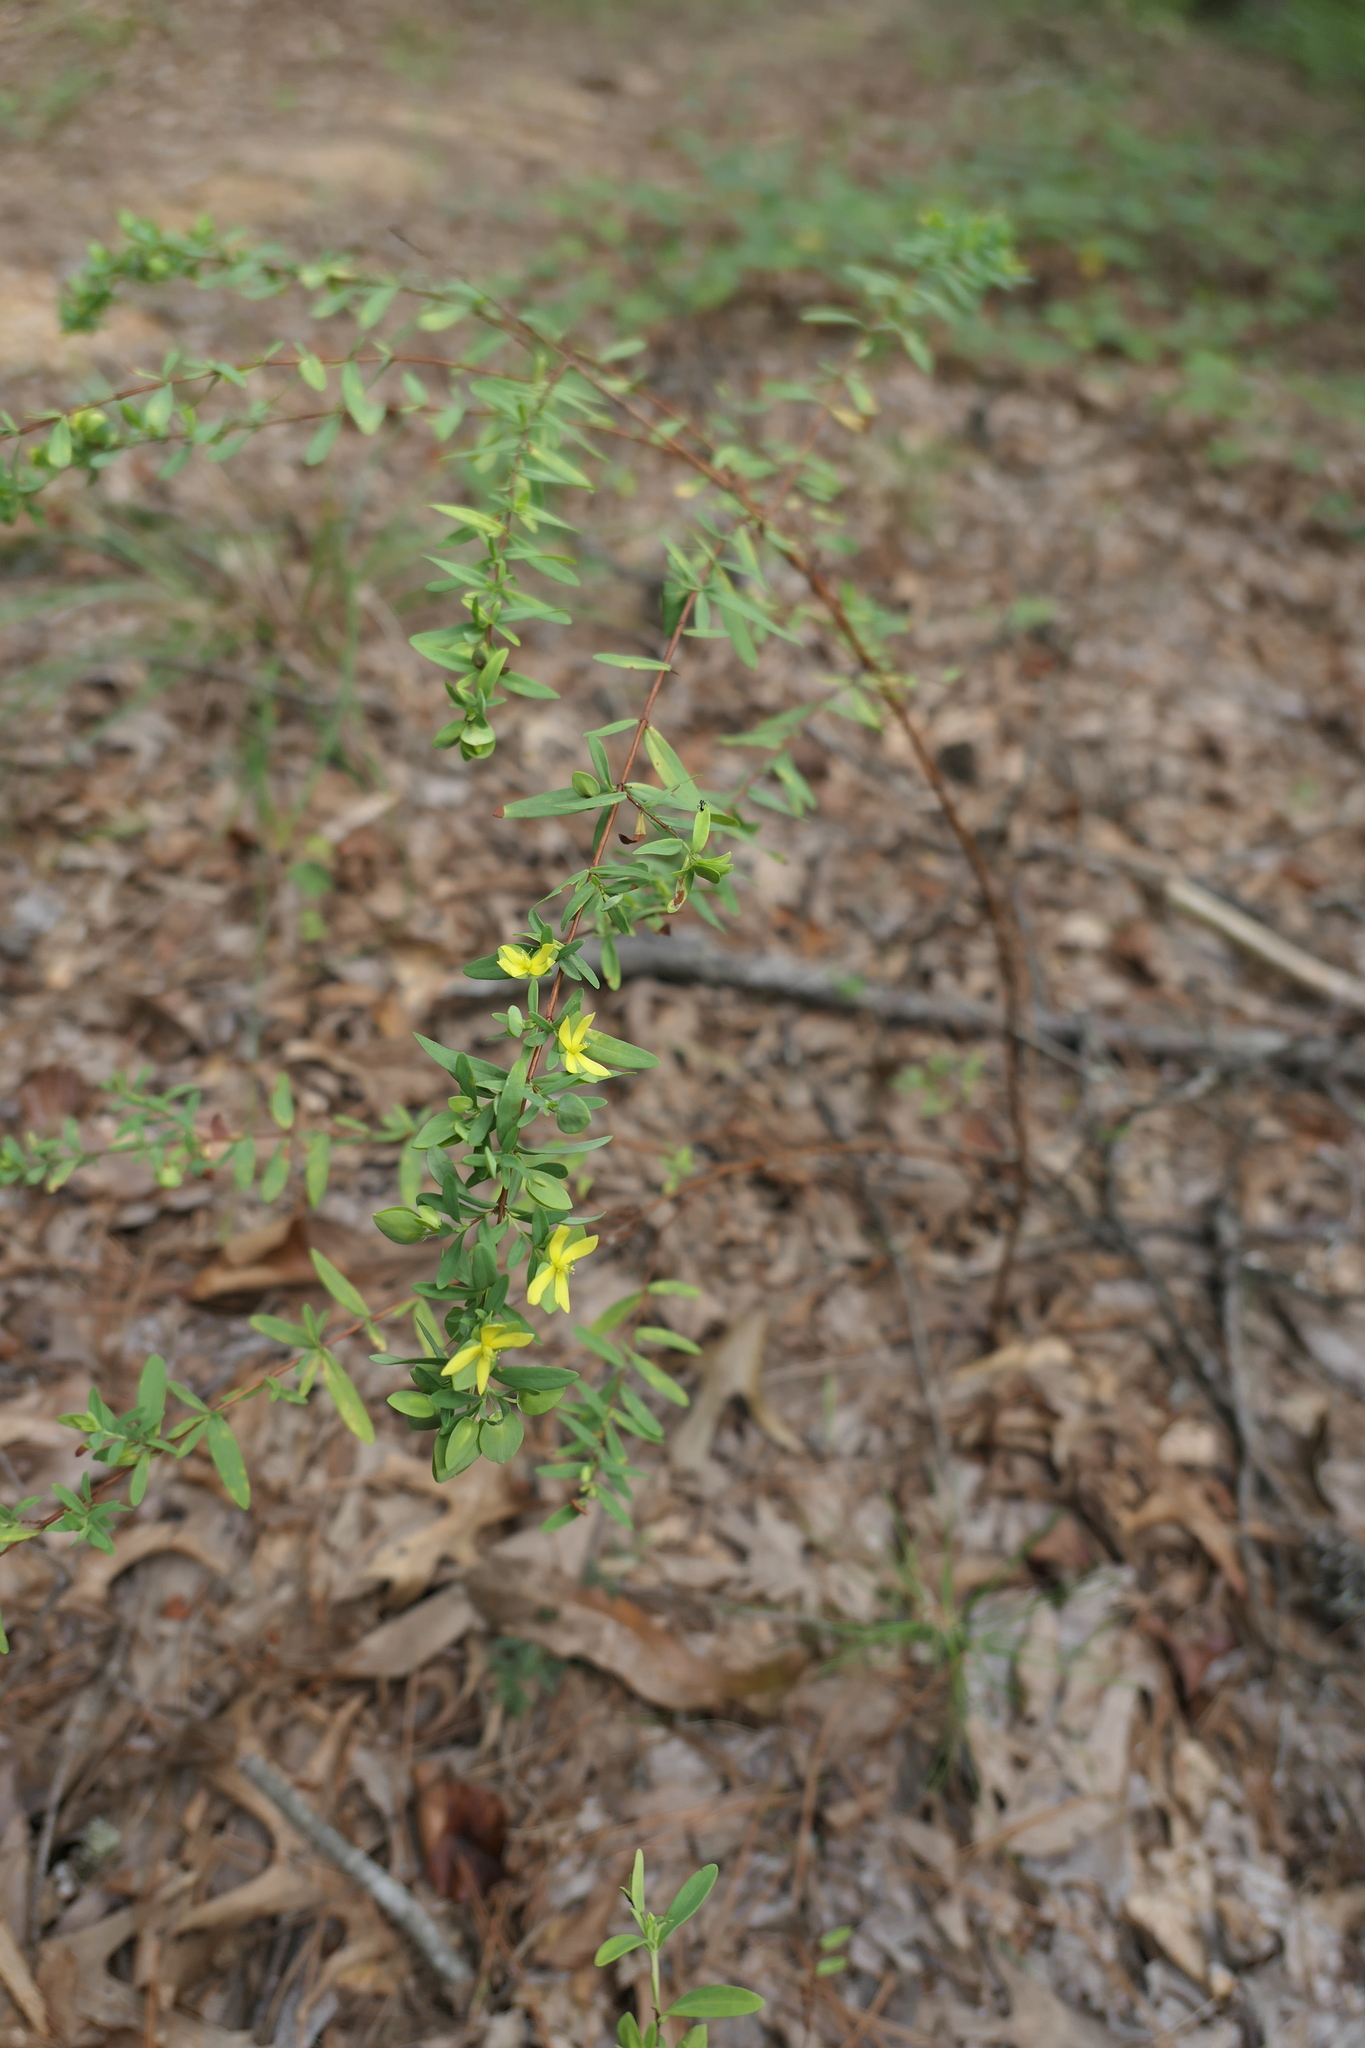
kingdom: Plantae
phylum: Tracheophyta
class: Magnoliopsida
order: Malpighiales
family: Hypericaceae
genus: Hypericum
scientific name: Hypericum hypericoides
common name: St. andrew's cross
